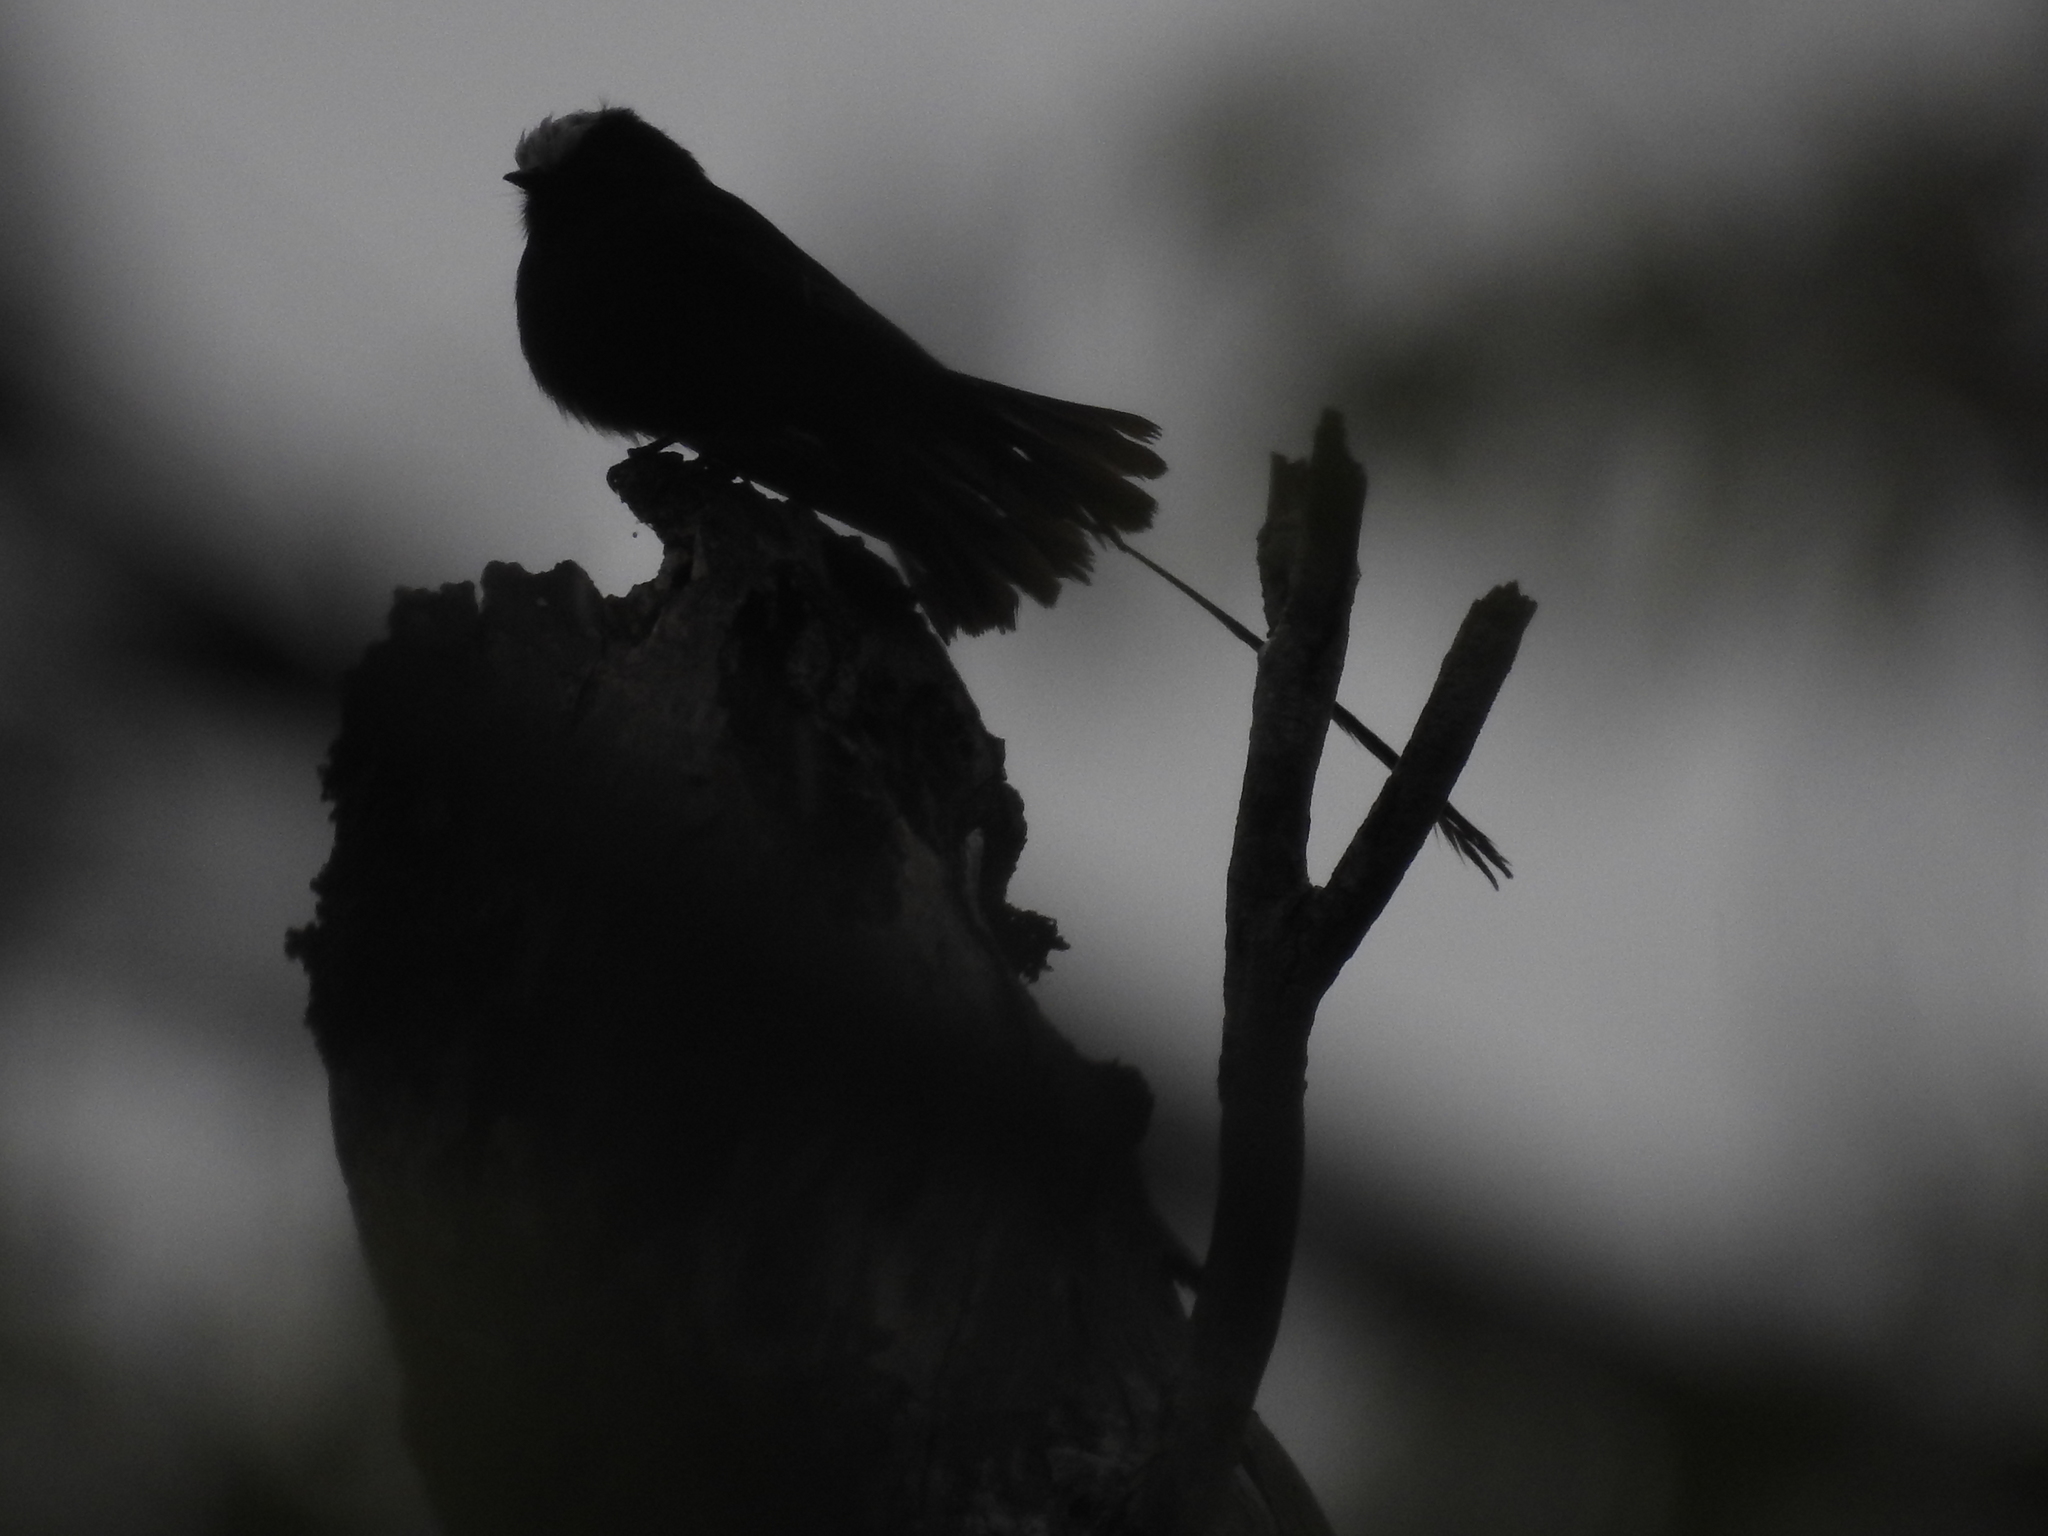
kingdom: Animalia
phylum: Chordata
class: Aves
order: Passeriformes
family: Tyrannidae
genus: Colonia
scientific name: Colonia colonus
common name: Long-tailed tyrant
